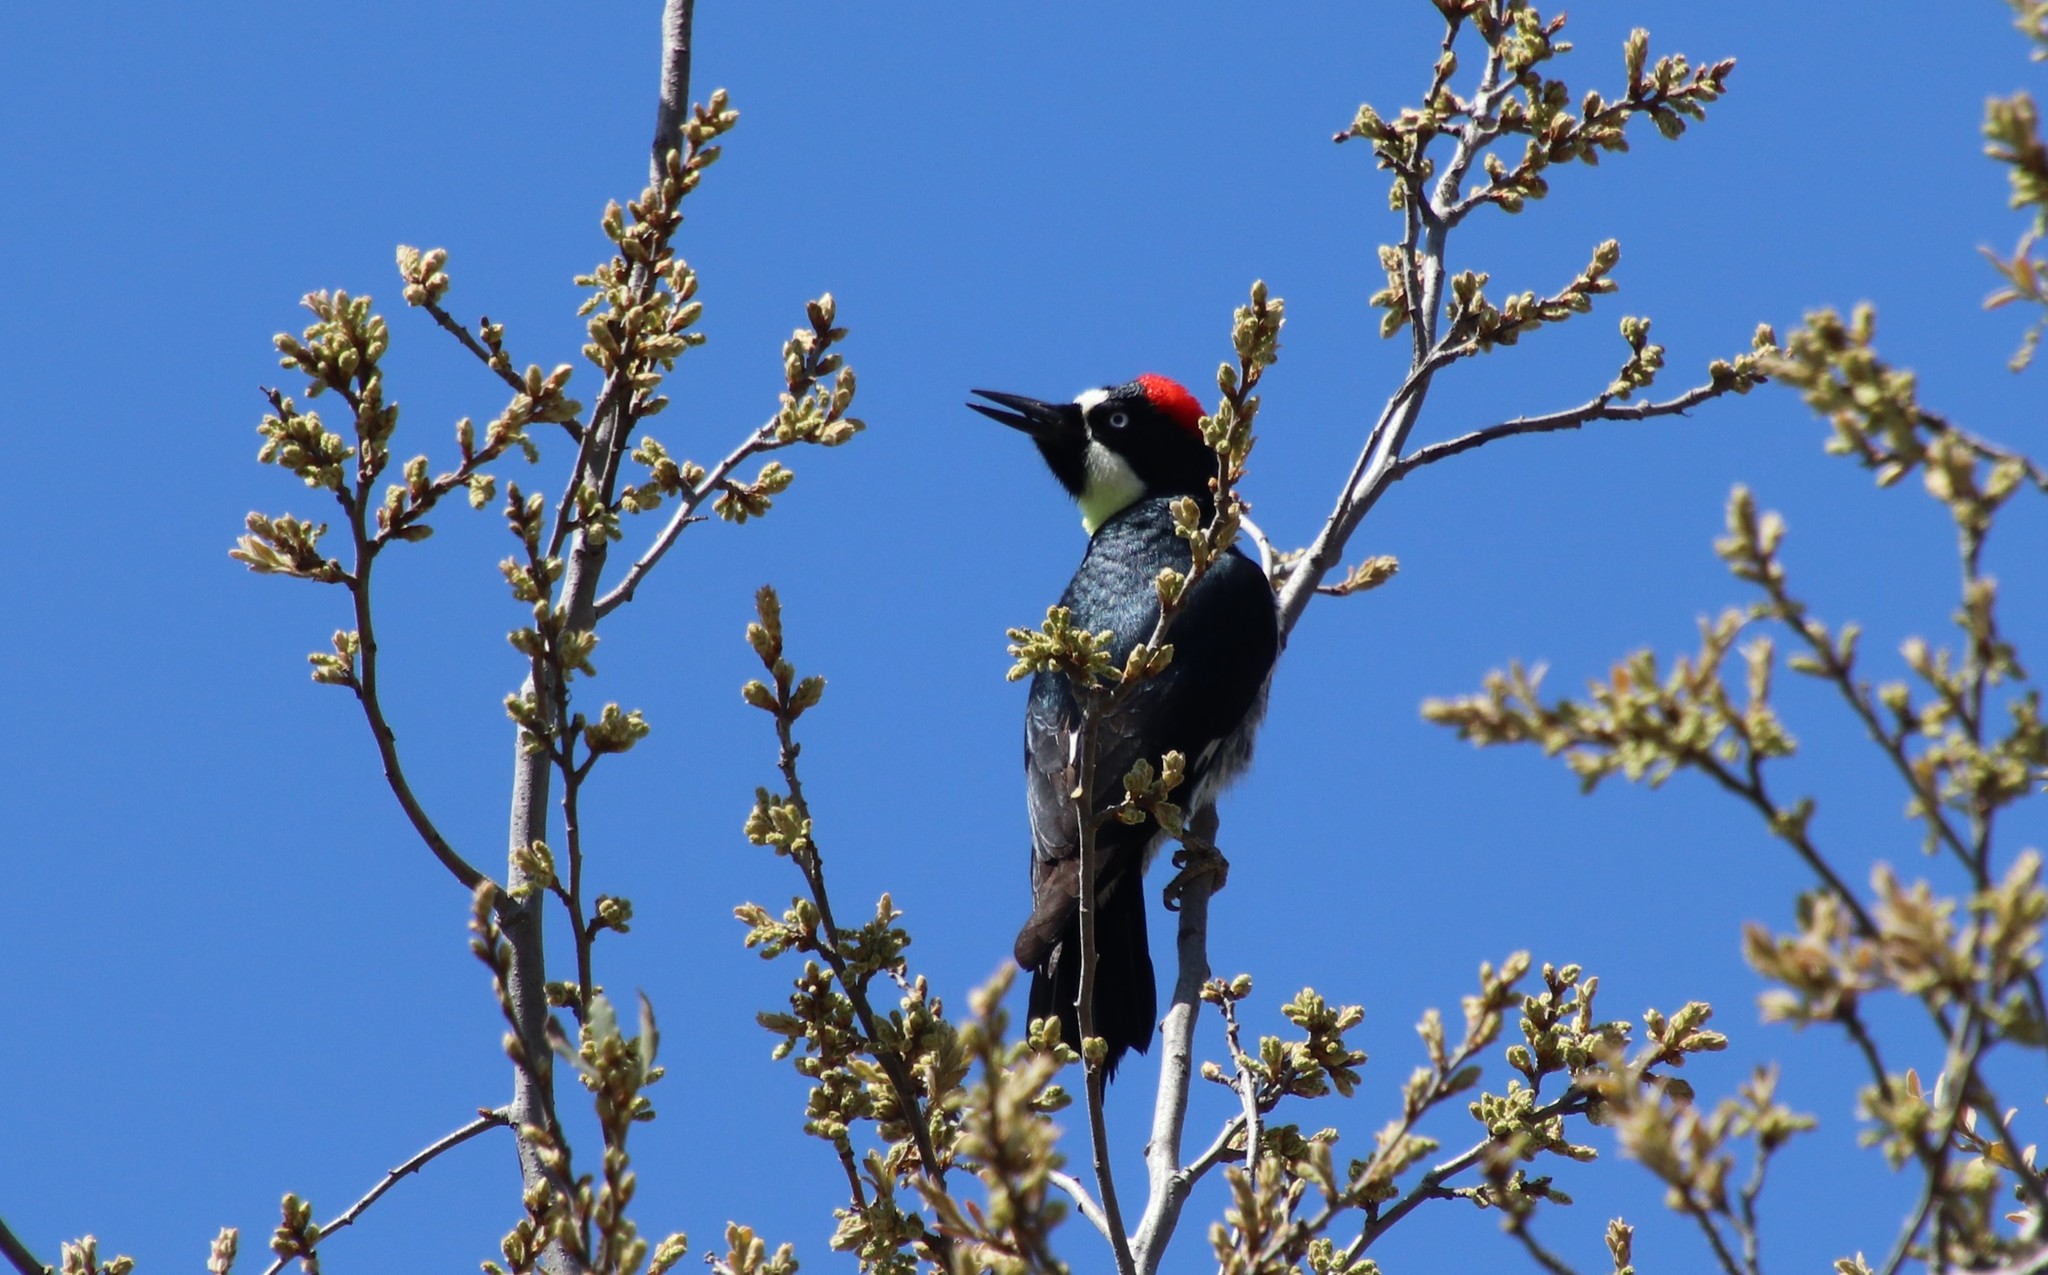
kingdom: Animalia
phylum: Chordata
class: Aves
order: Piciformes
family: Picidae
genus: Melanerpes
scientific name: Melanerpes formicivorus
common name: Acorn woodpecker
